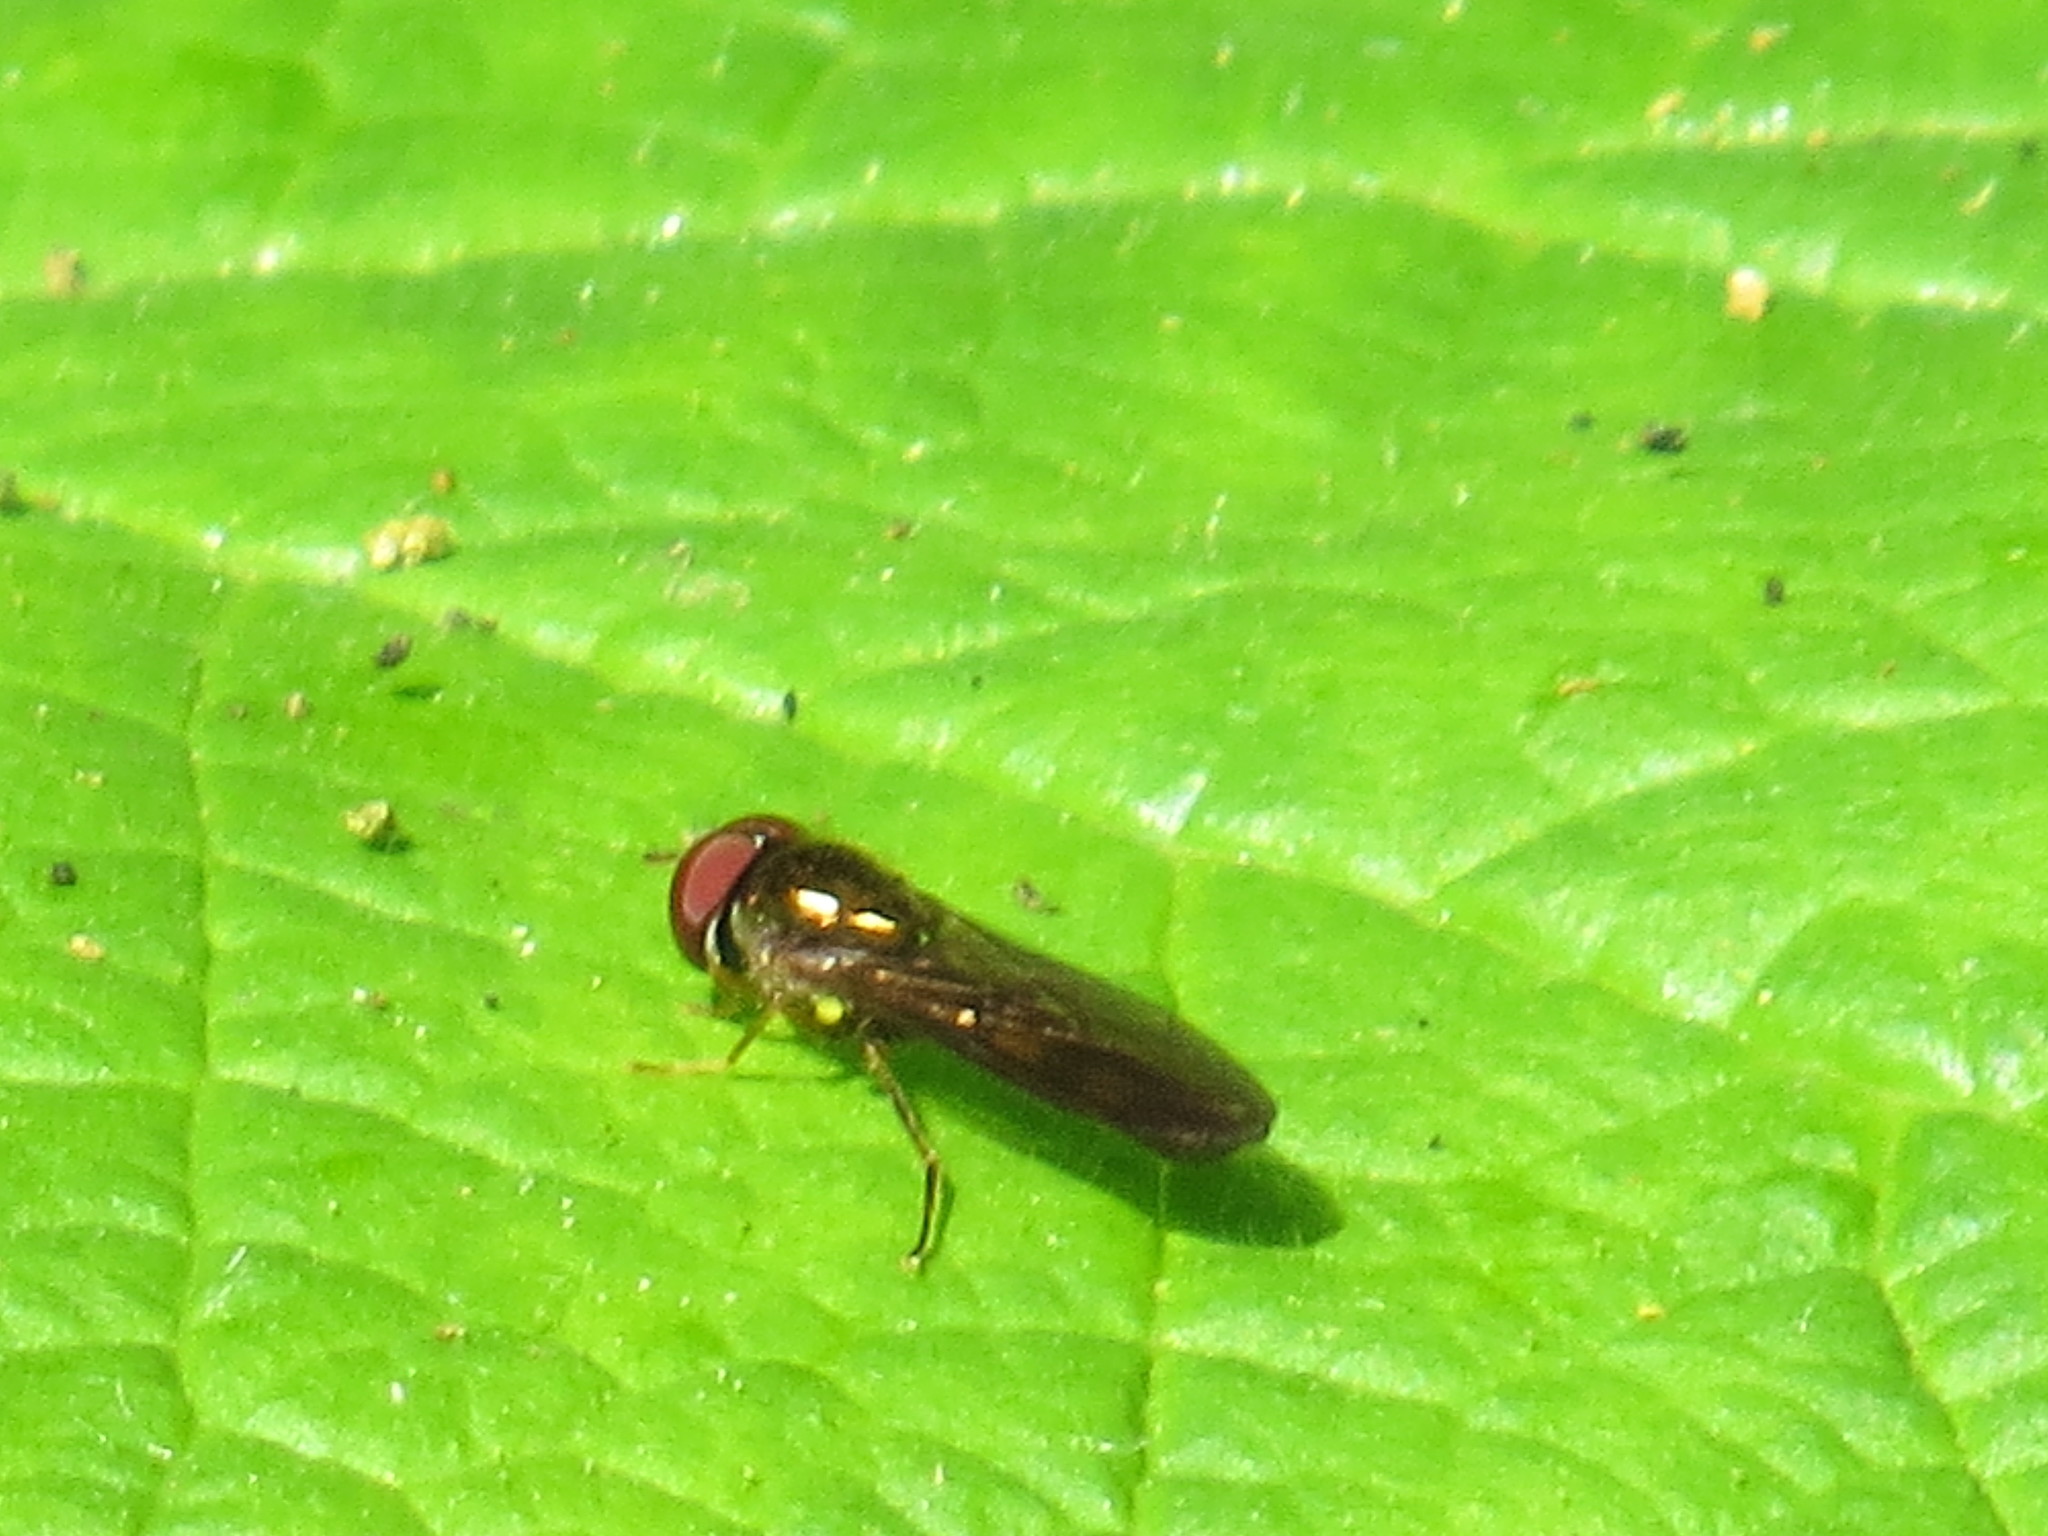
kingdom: Animalia
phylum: Arthropoda
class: Insecta
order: Diptera
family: Syrphidae
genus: Melanostoma
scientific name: Melanostoma mellina
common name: Hover fly
